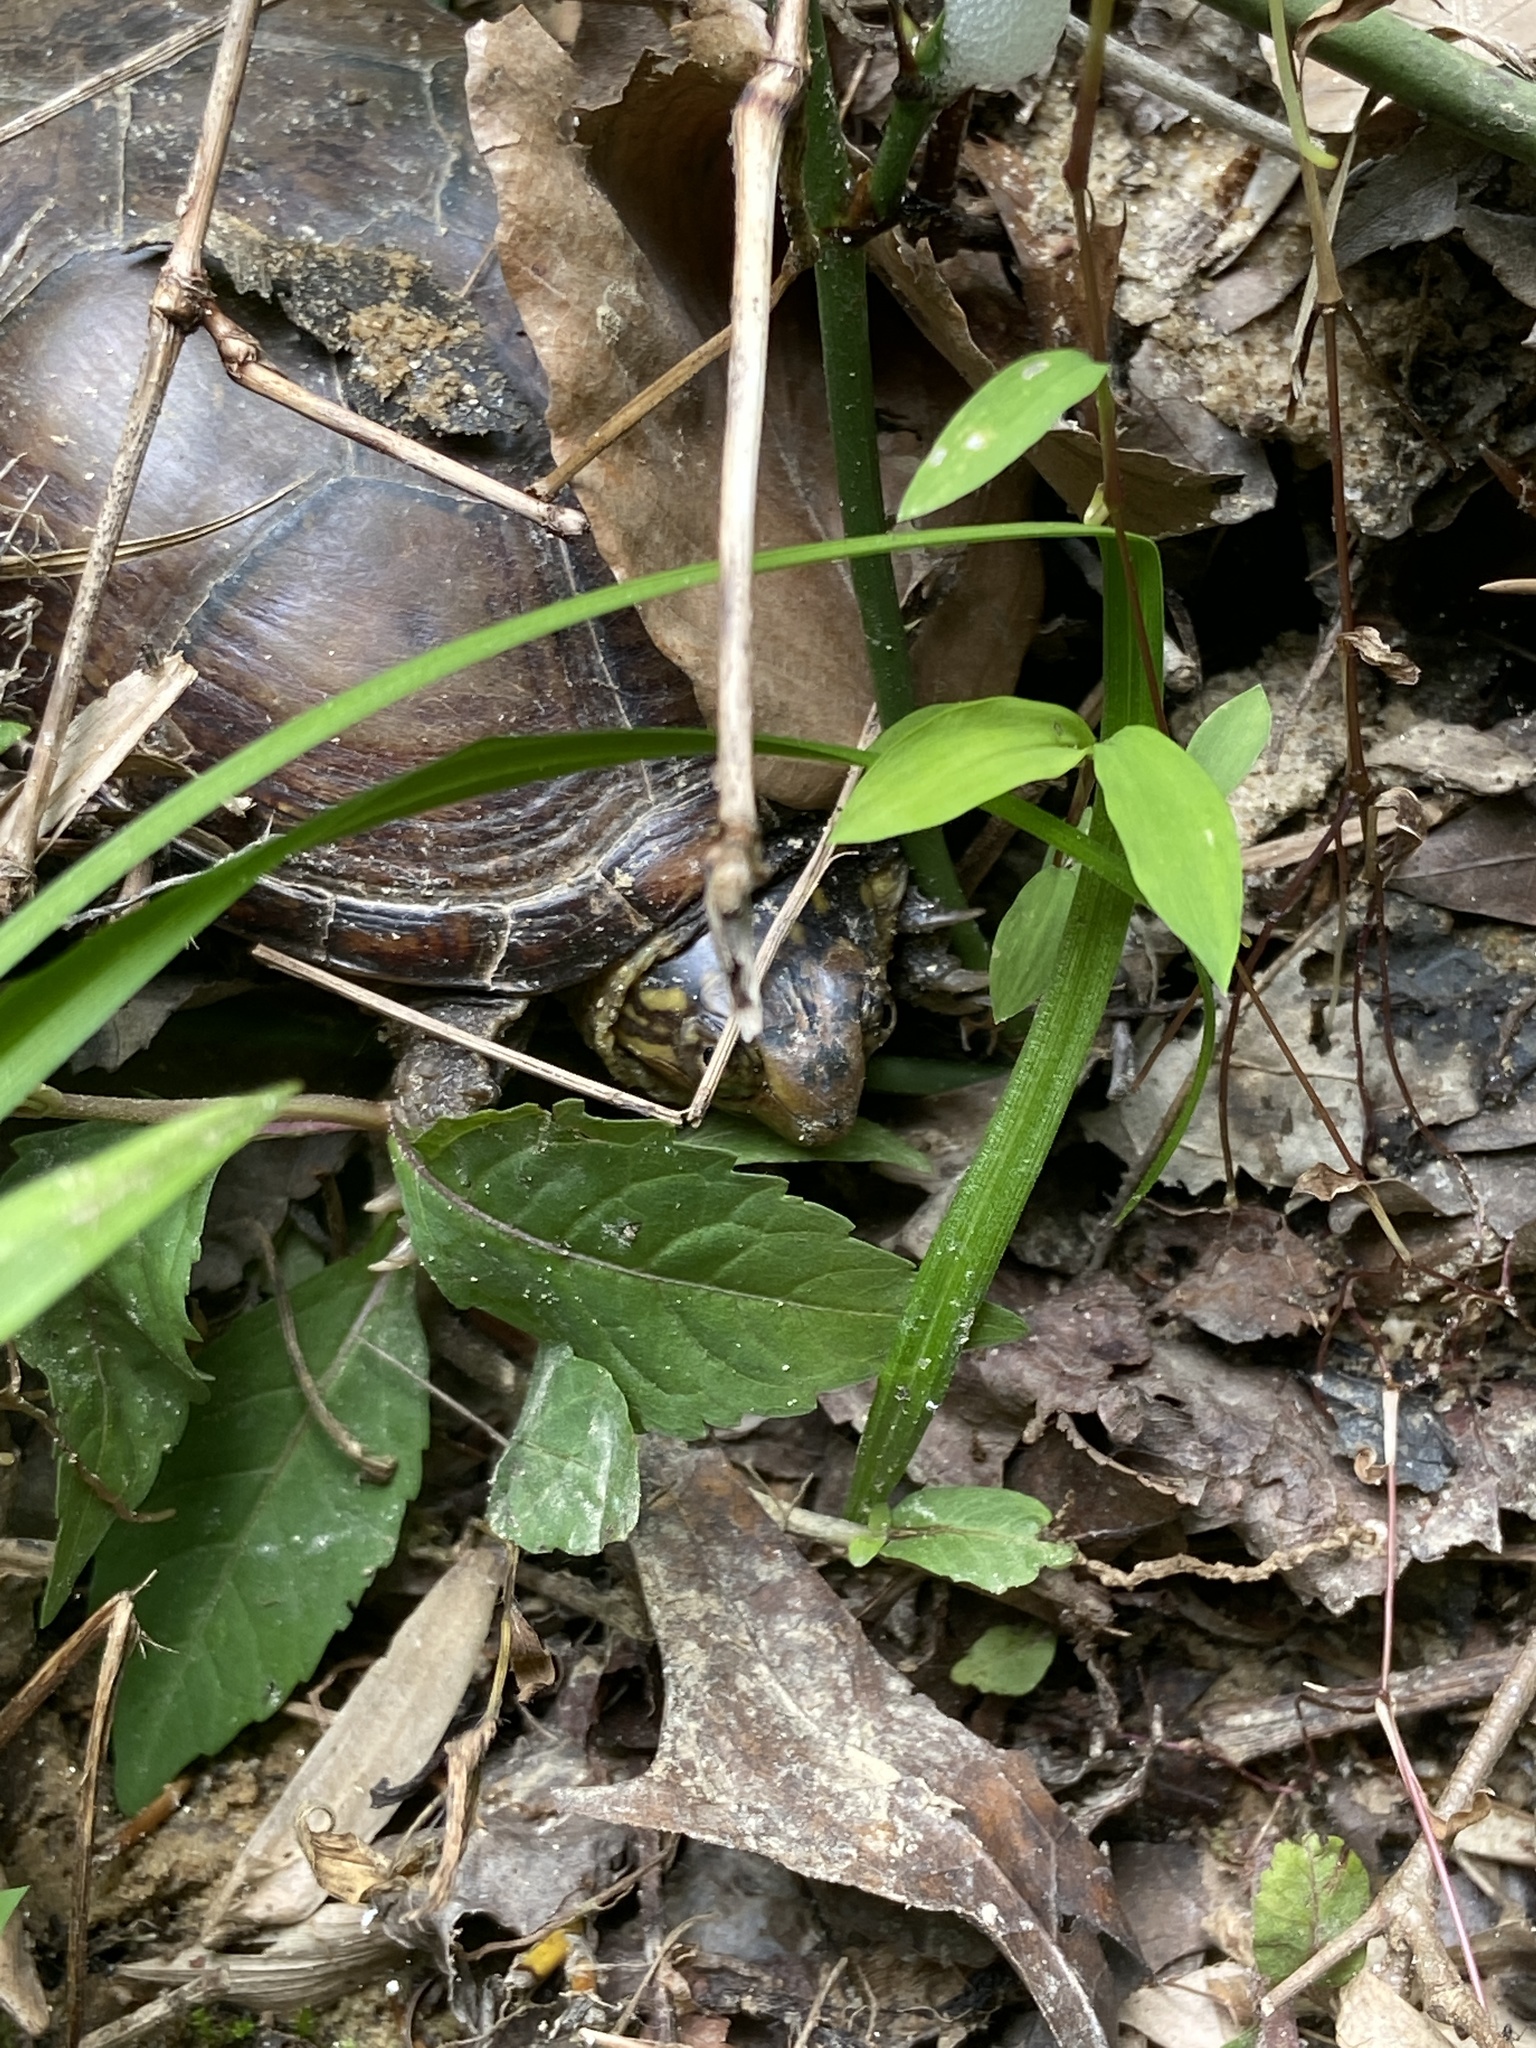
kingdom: Animalia
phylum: Chordata
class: Testudines
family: Kinosternidae
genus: Kinosternon
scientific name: Kinosternon subrubrum
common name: Eastern mud turtle
